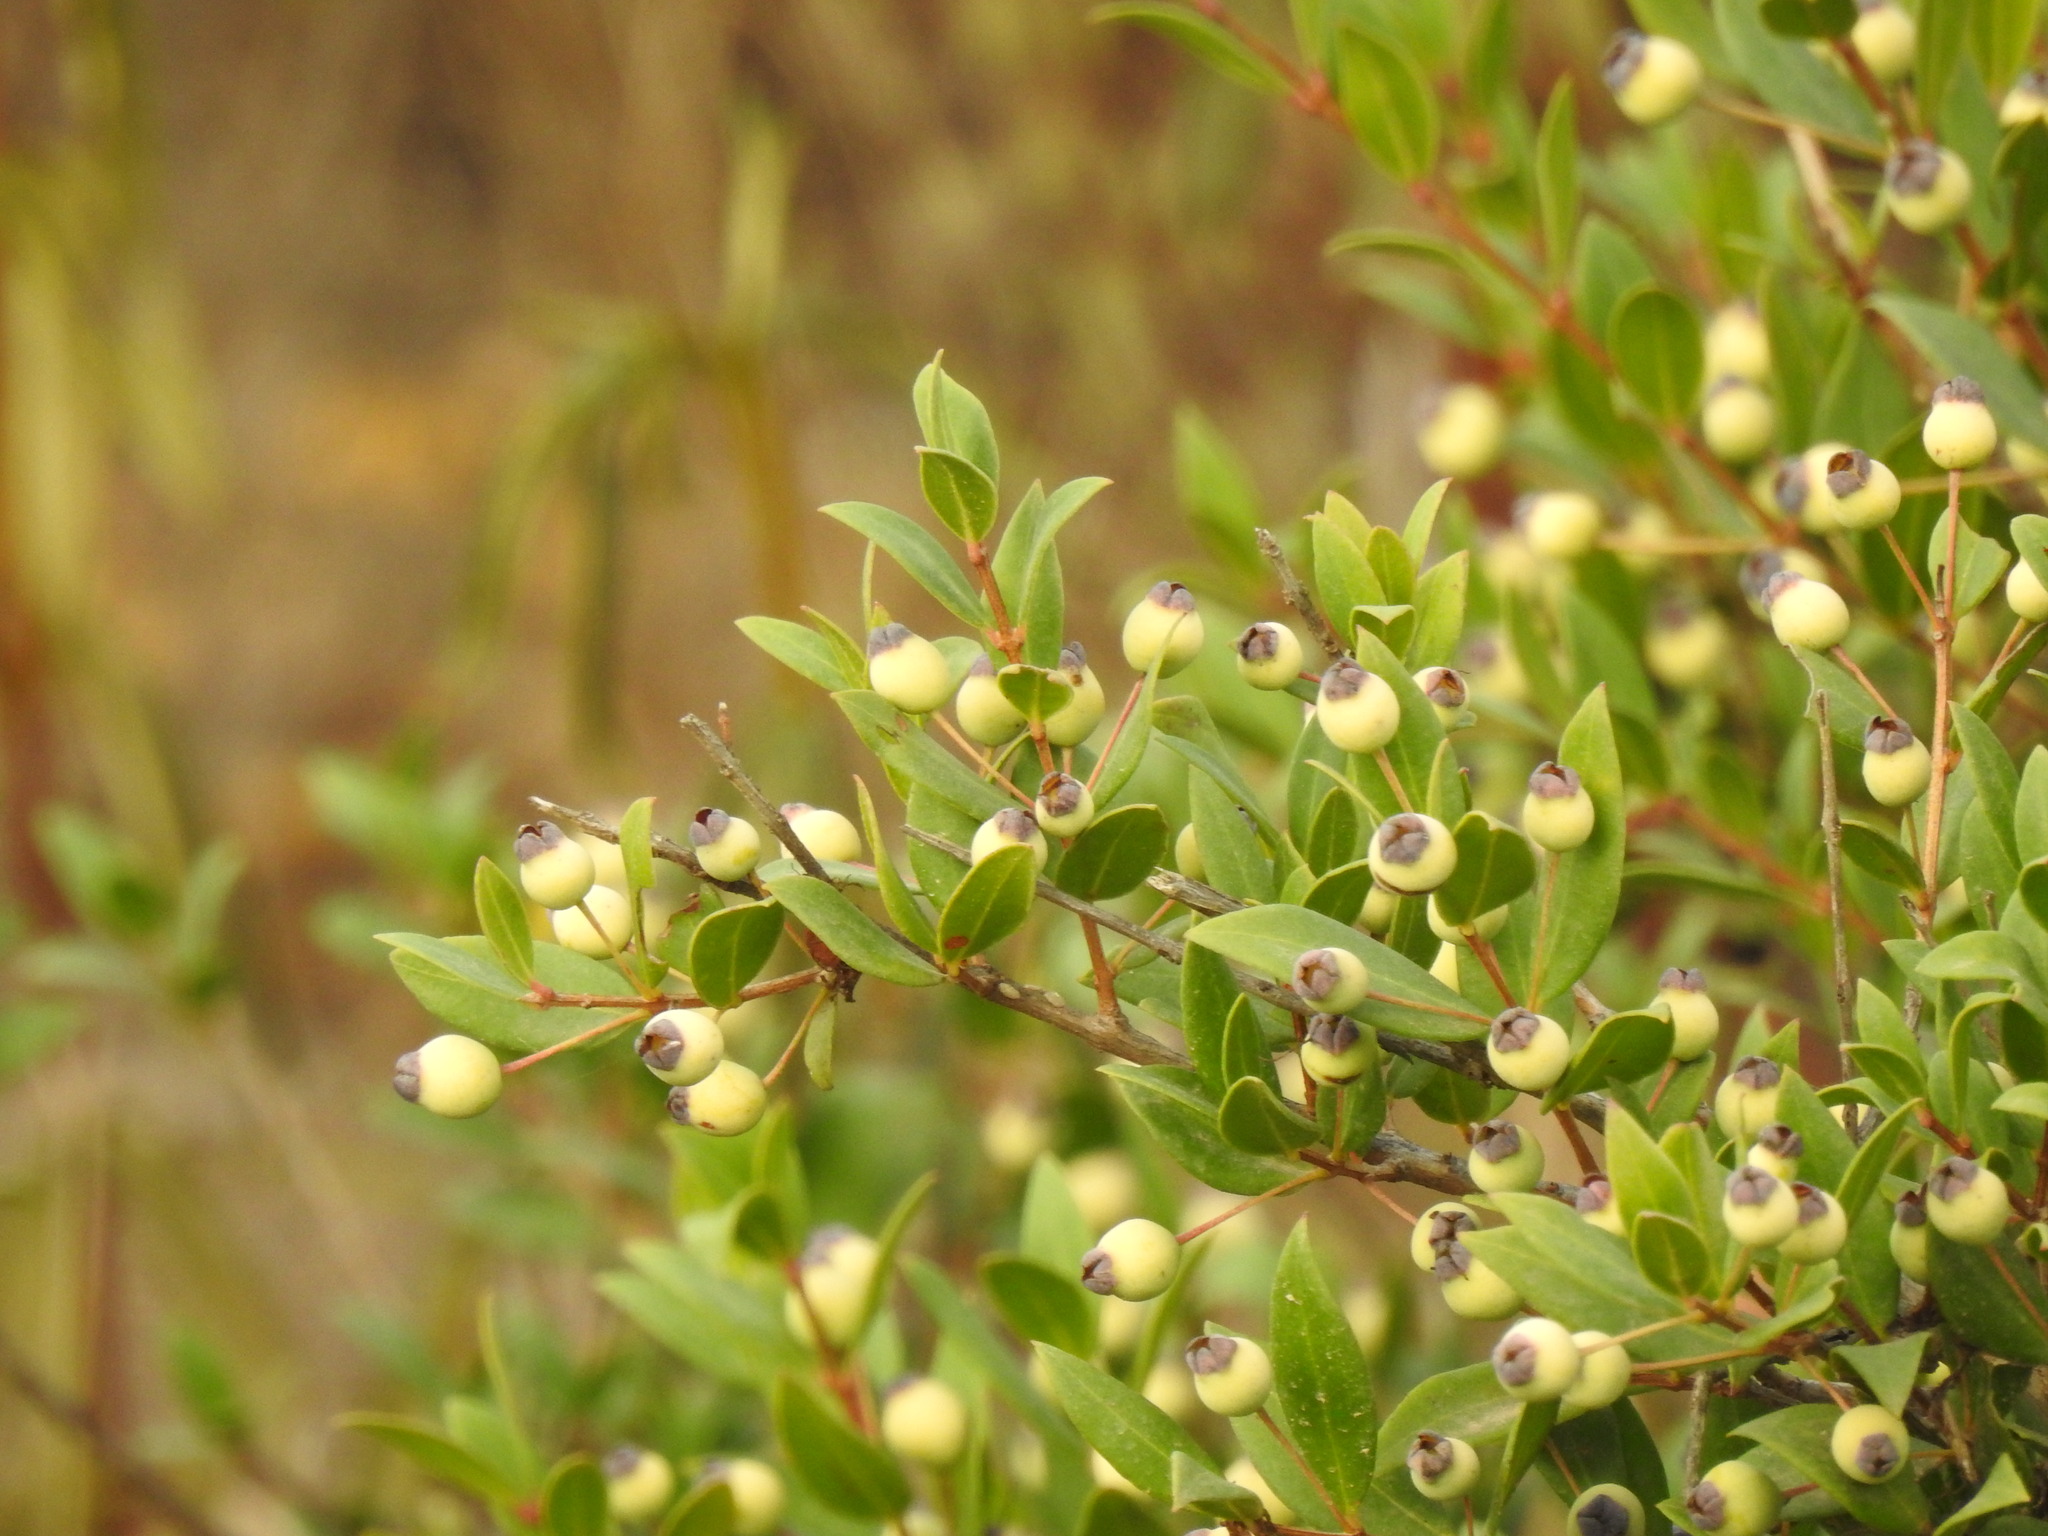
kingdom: Plantae
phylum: Tracheophyta
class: Magnoliopsida
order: Myrtales
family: Myrtaceae
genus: Myrtus
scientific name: Myrtus communis
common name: Myrtle
